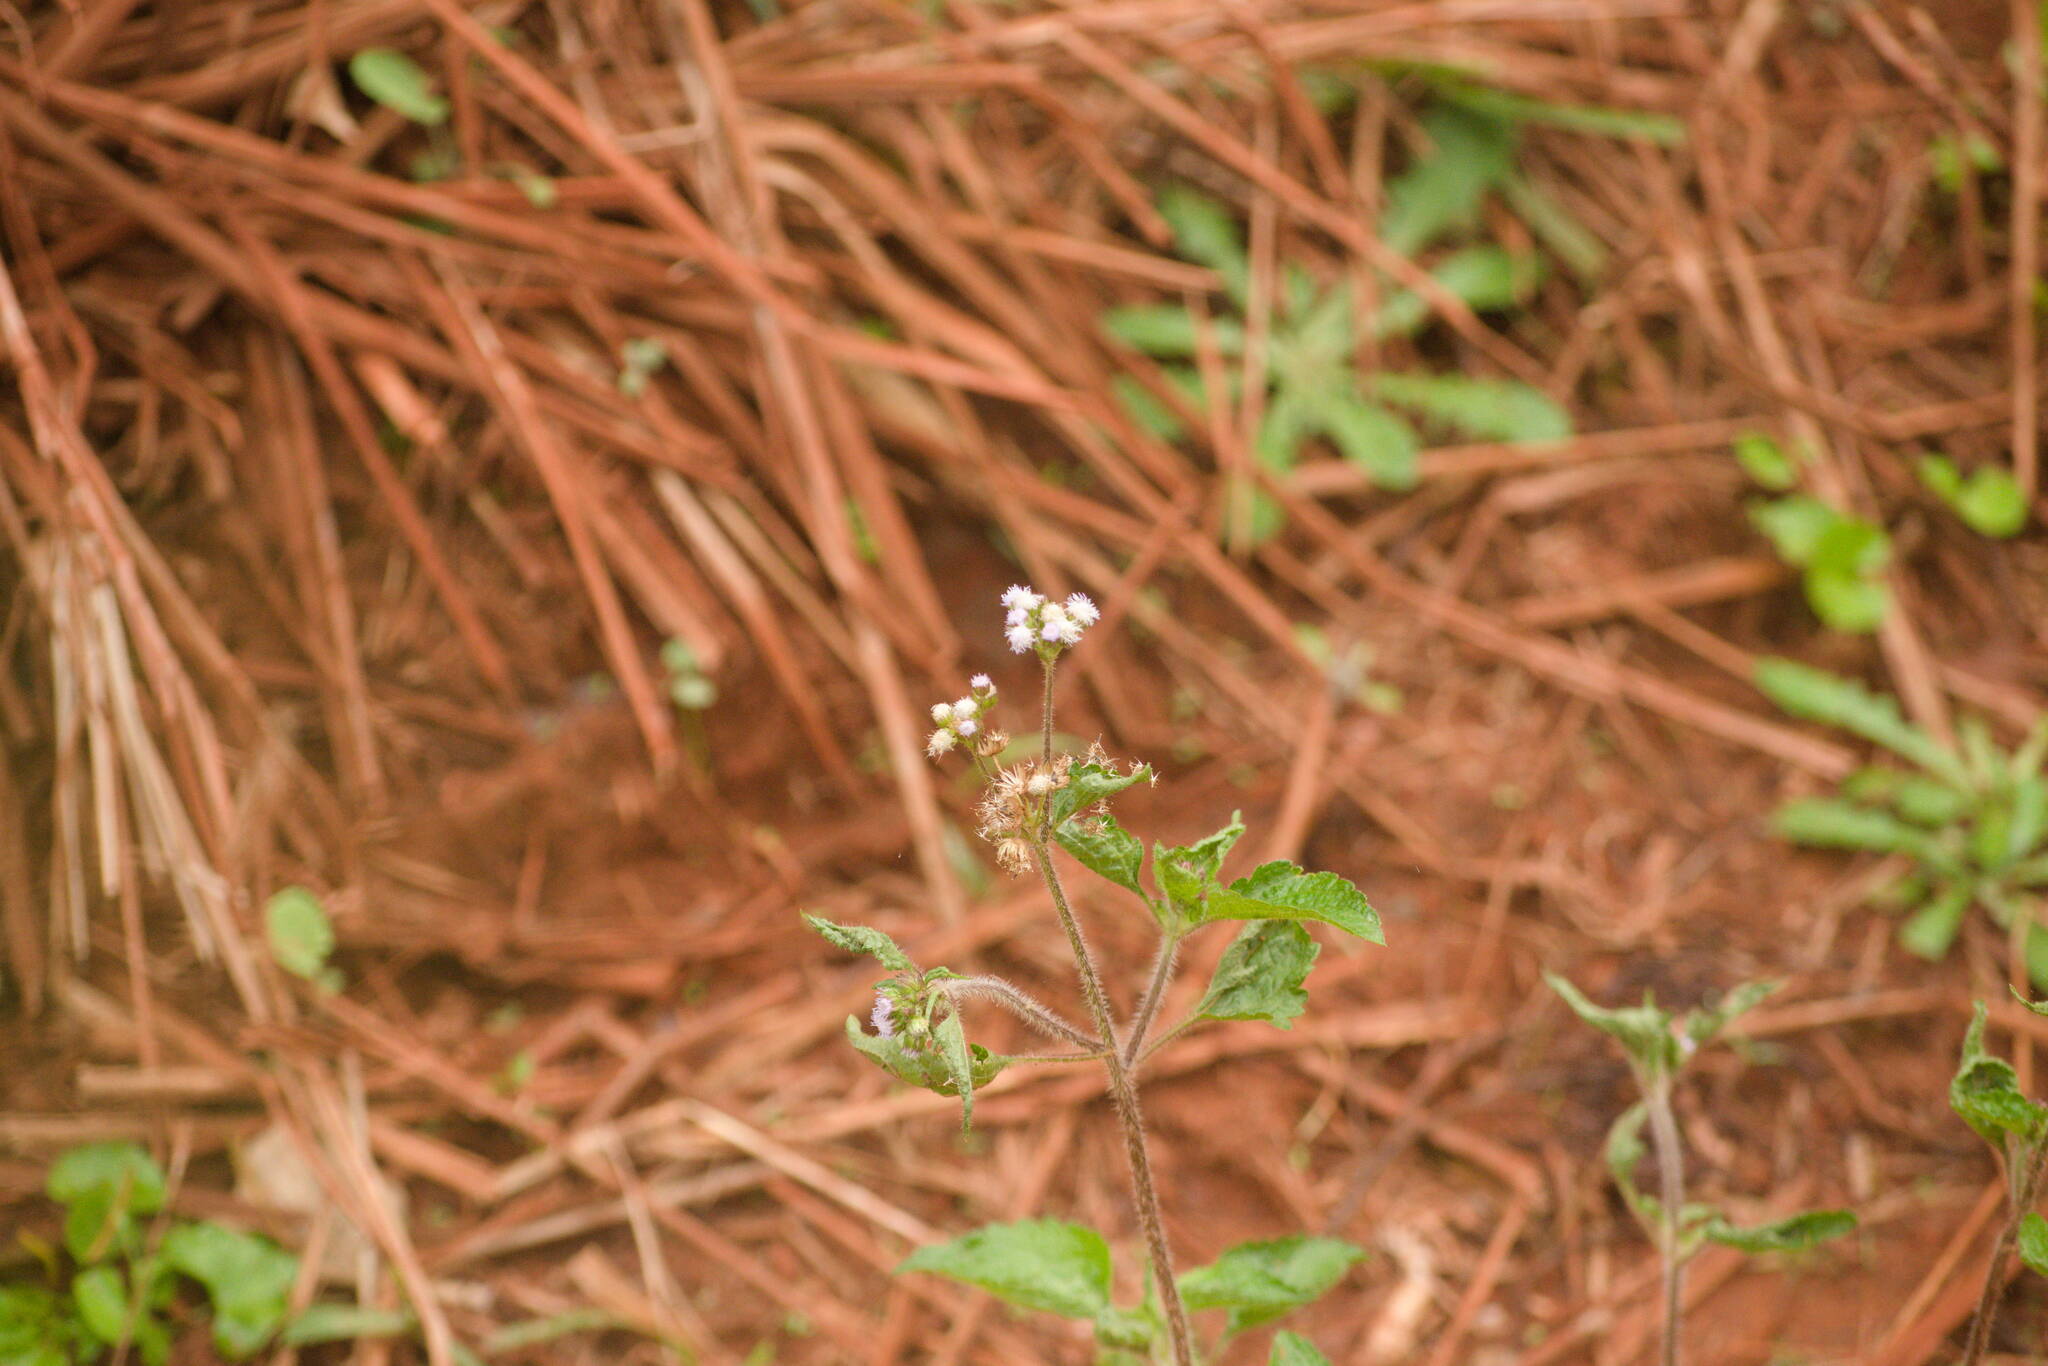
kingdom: Plantae
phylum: Tracheophyta
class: Magnoliopsida
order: Asterales
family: Asteraceae
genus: Ageratum
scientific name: Ageratum conyzoides
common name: Tropical whiteweed
